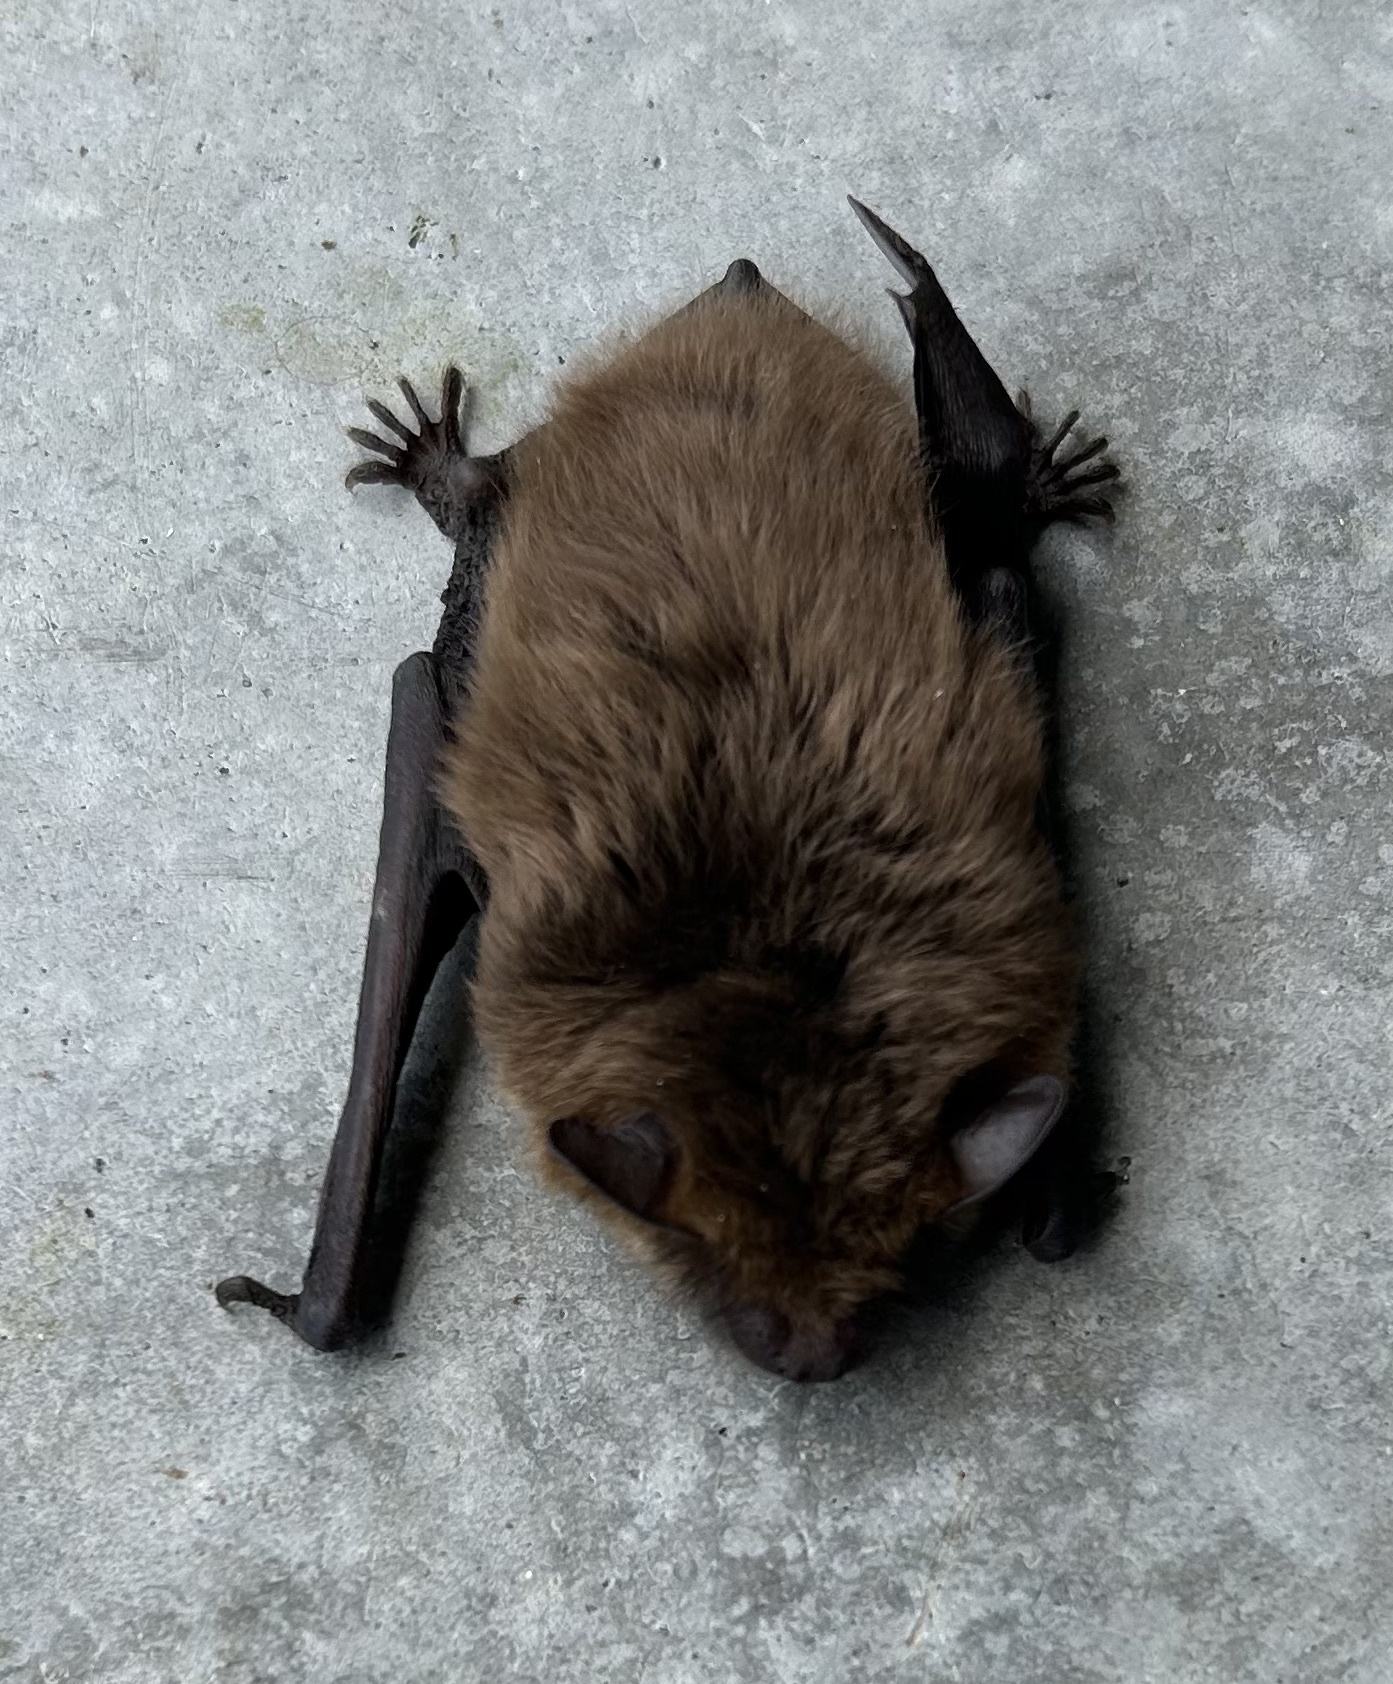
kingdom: Animalia
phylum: Chordata
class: Mammalia
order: Chiroptera
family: Vespertilionidae
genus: Eptesicus
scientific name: Eptesicus fuscus
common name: Big brown bat
